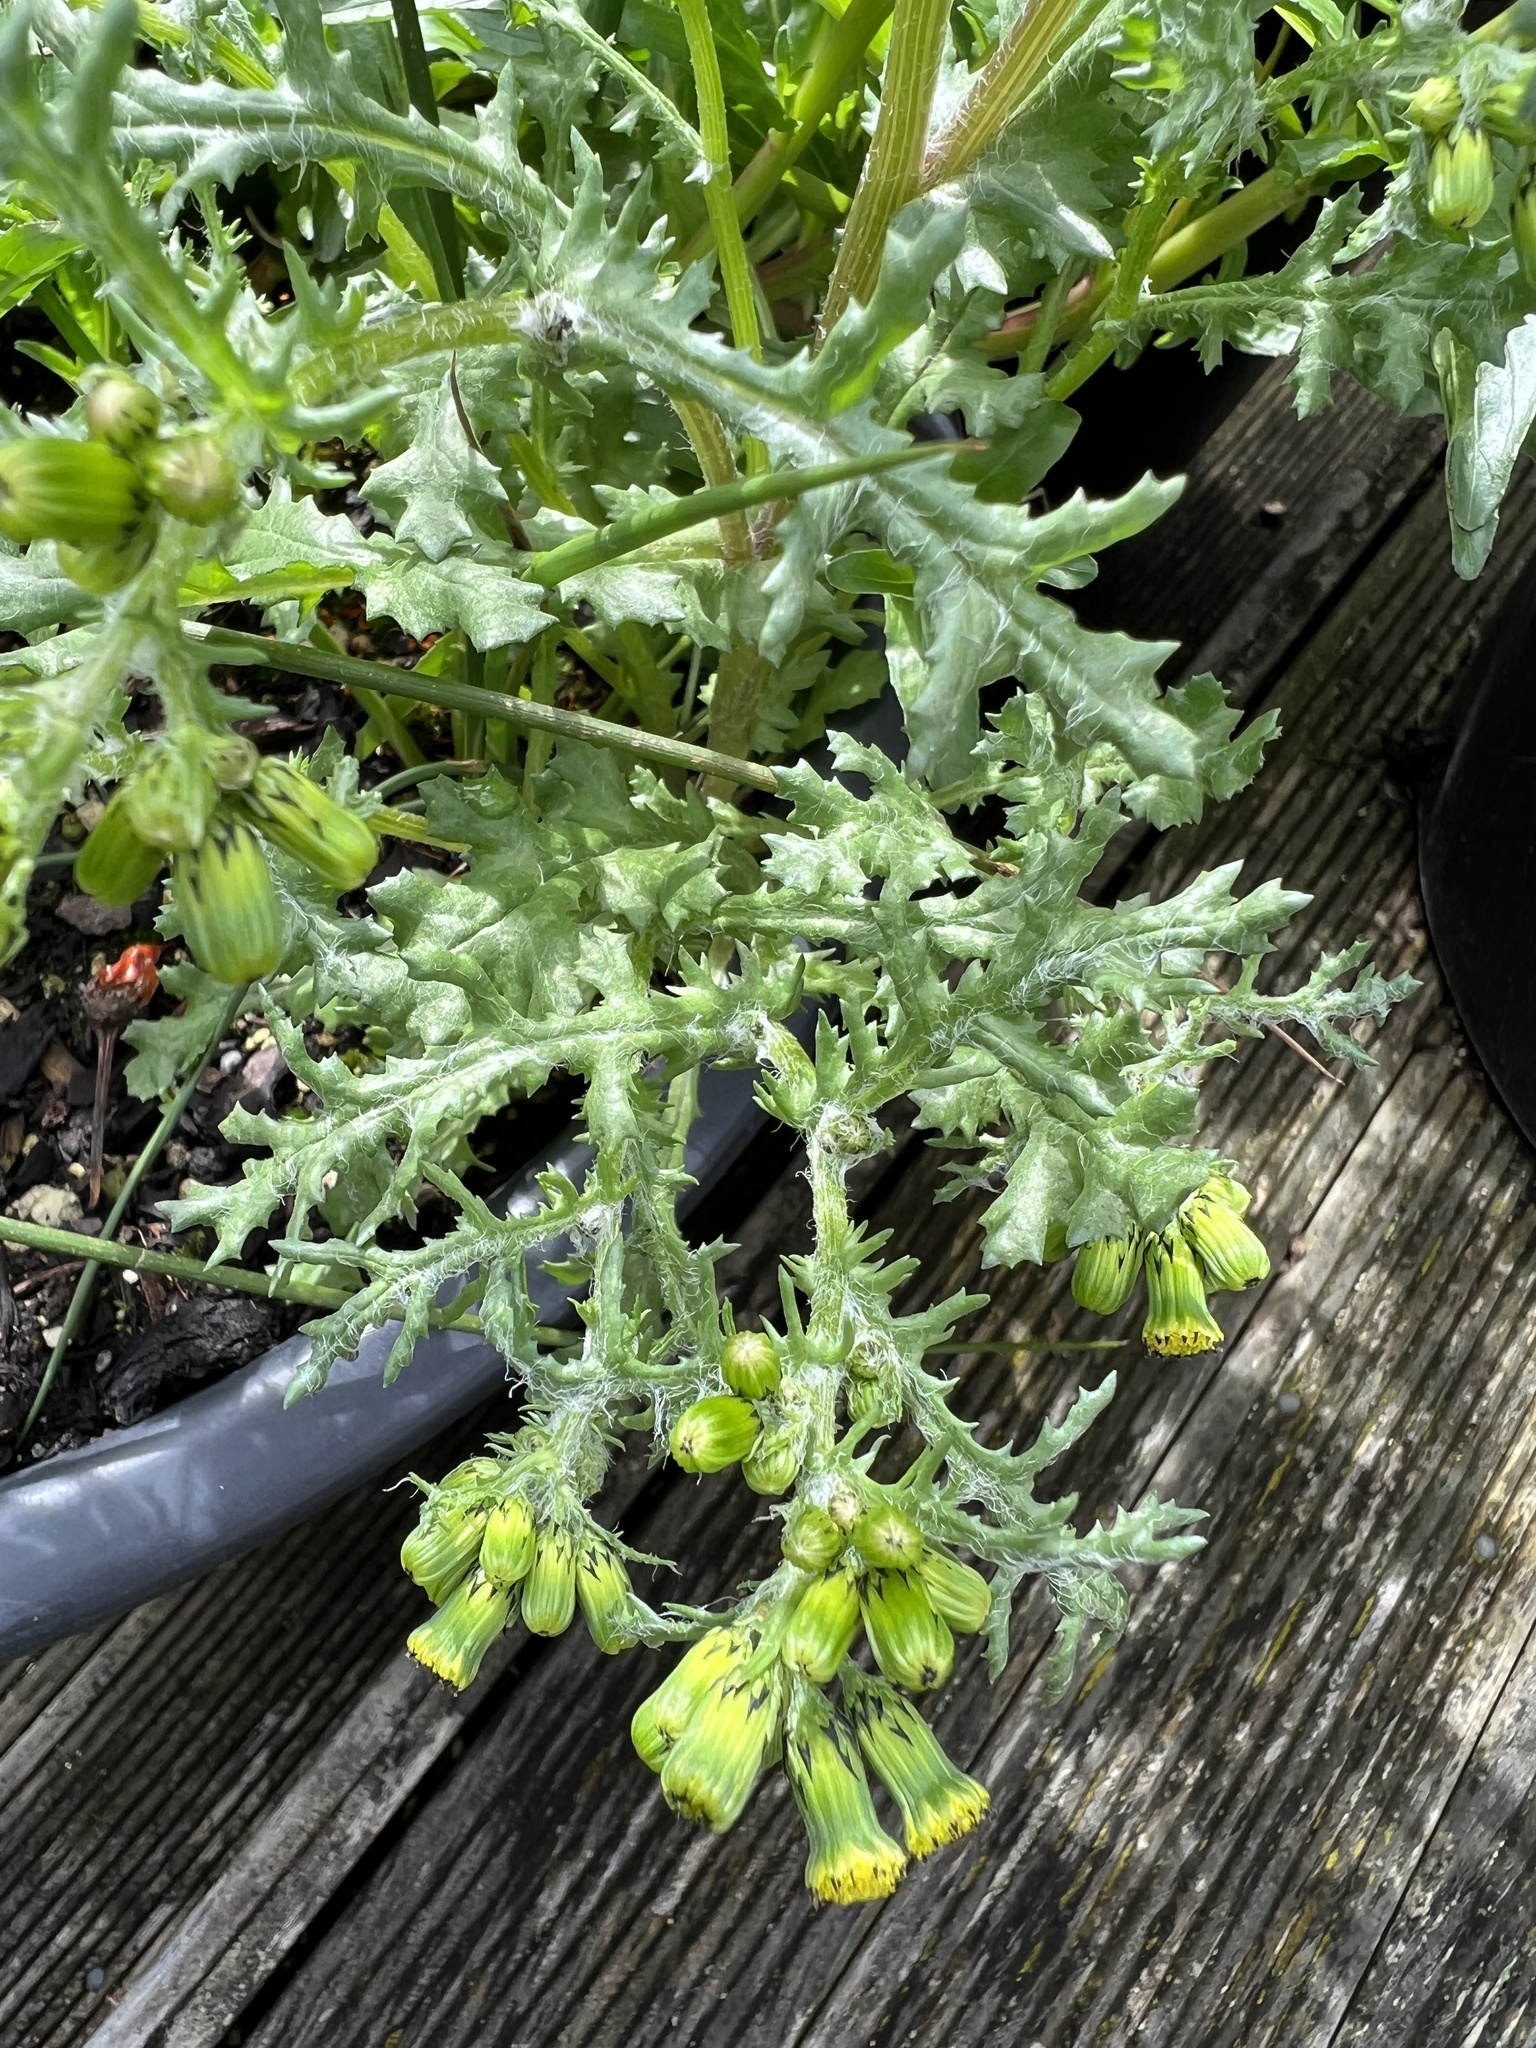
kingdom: Plantae
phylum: Tracheophyta
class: Magnoliopsida
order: Asterales
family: Asteraceae
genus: Senecio
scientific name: Senecio vulgaris
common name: Old-man-in-the-spring
